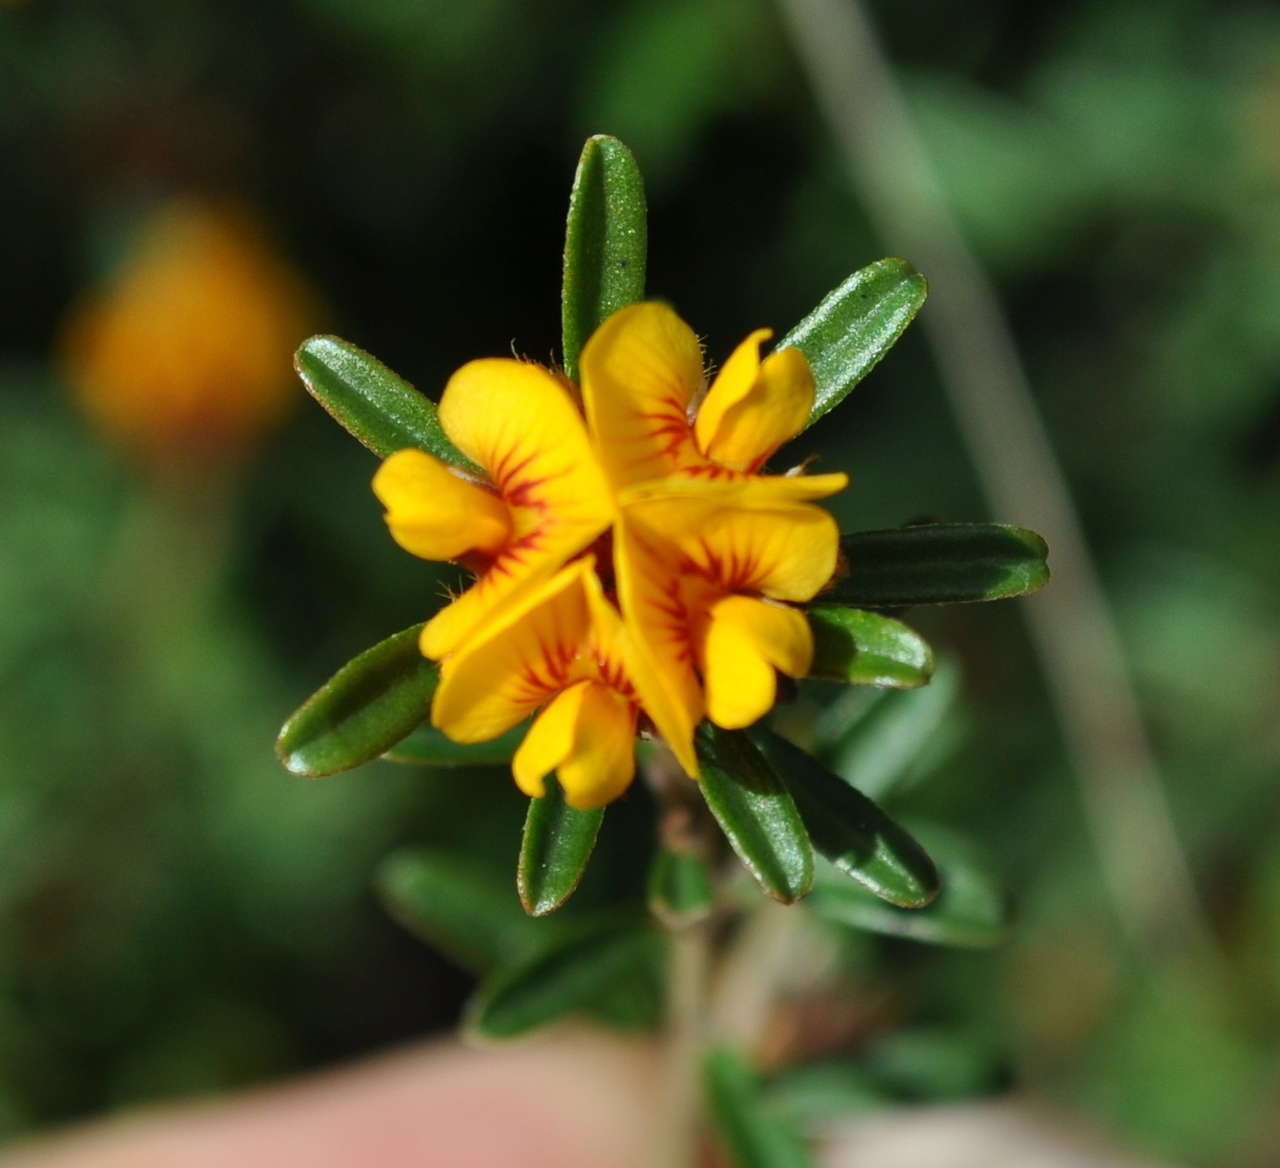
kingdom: Plantae
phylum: Tracheophyta
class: Magnoliopsida
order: Fabales
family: Fabaceae
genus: Pultenaea
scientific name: Pultenaea daphnoides
